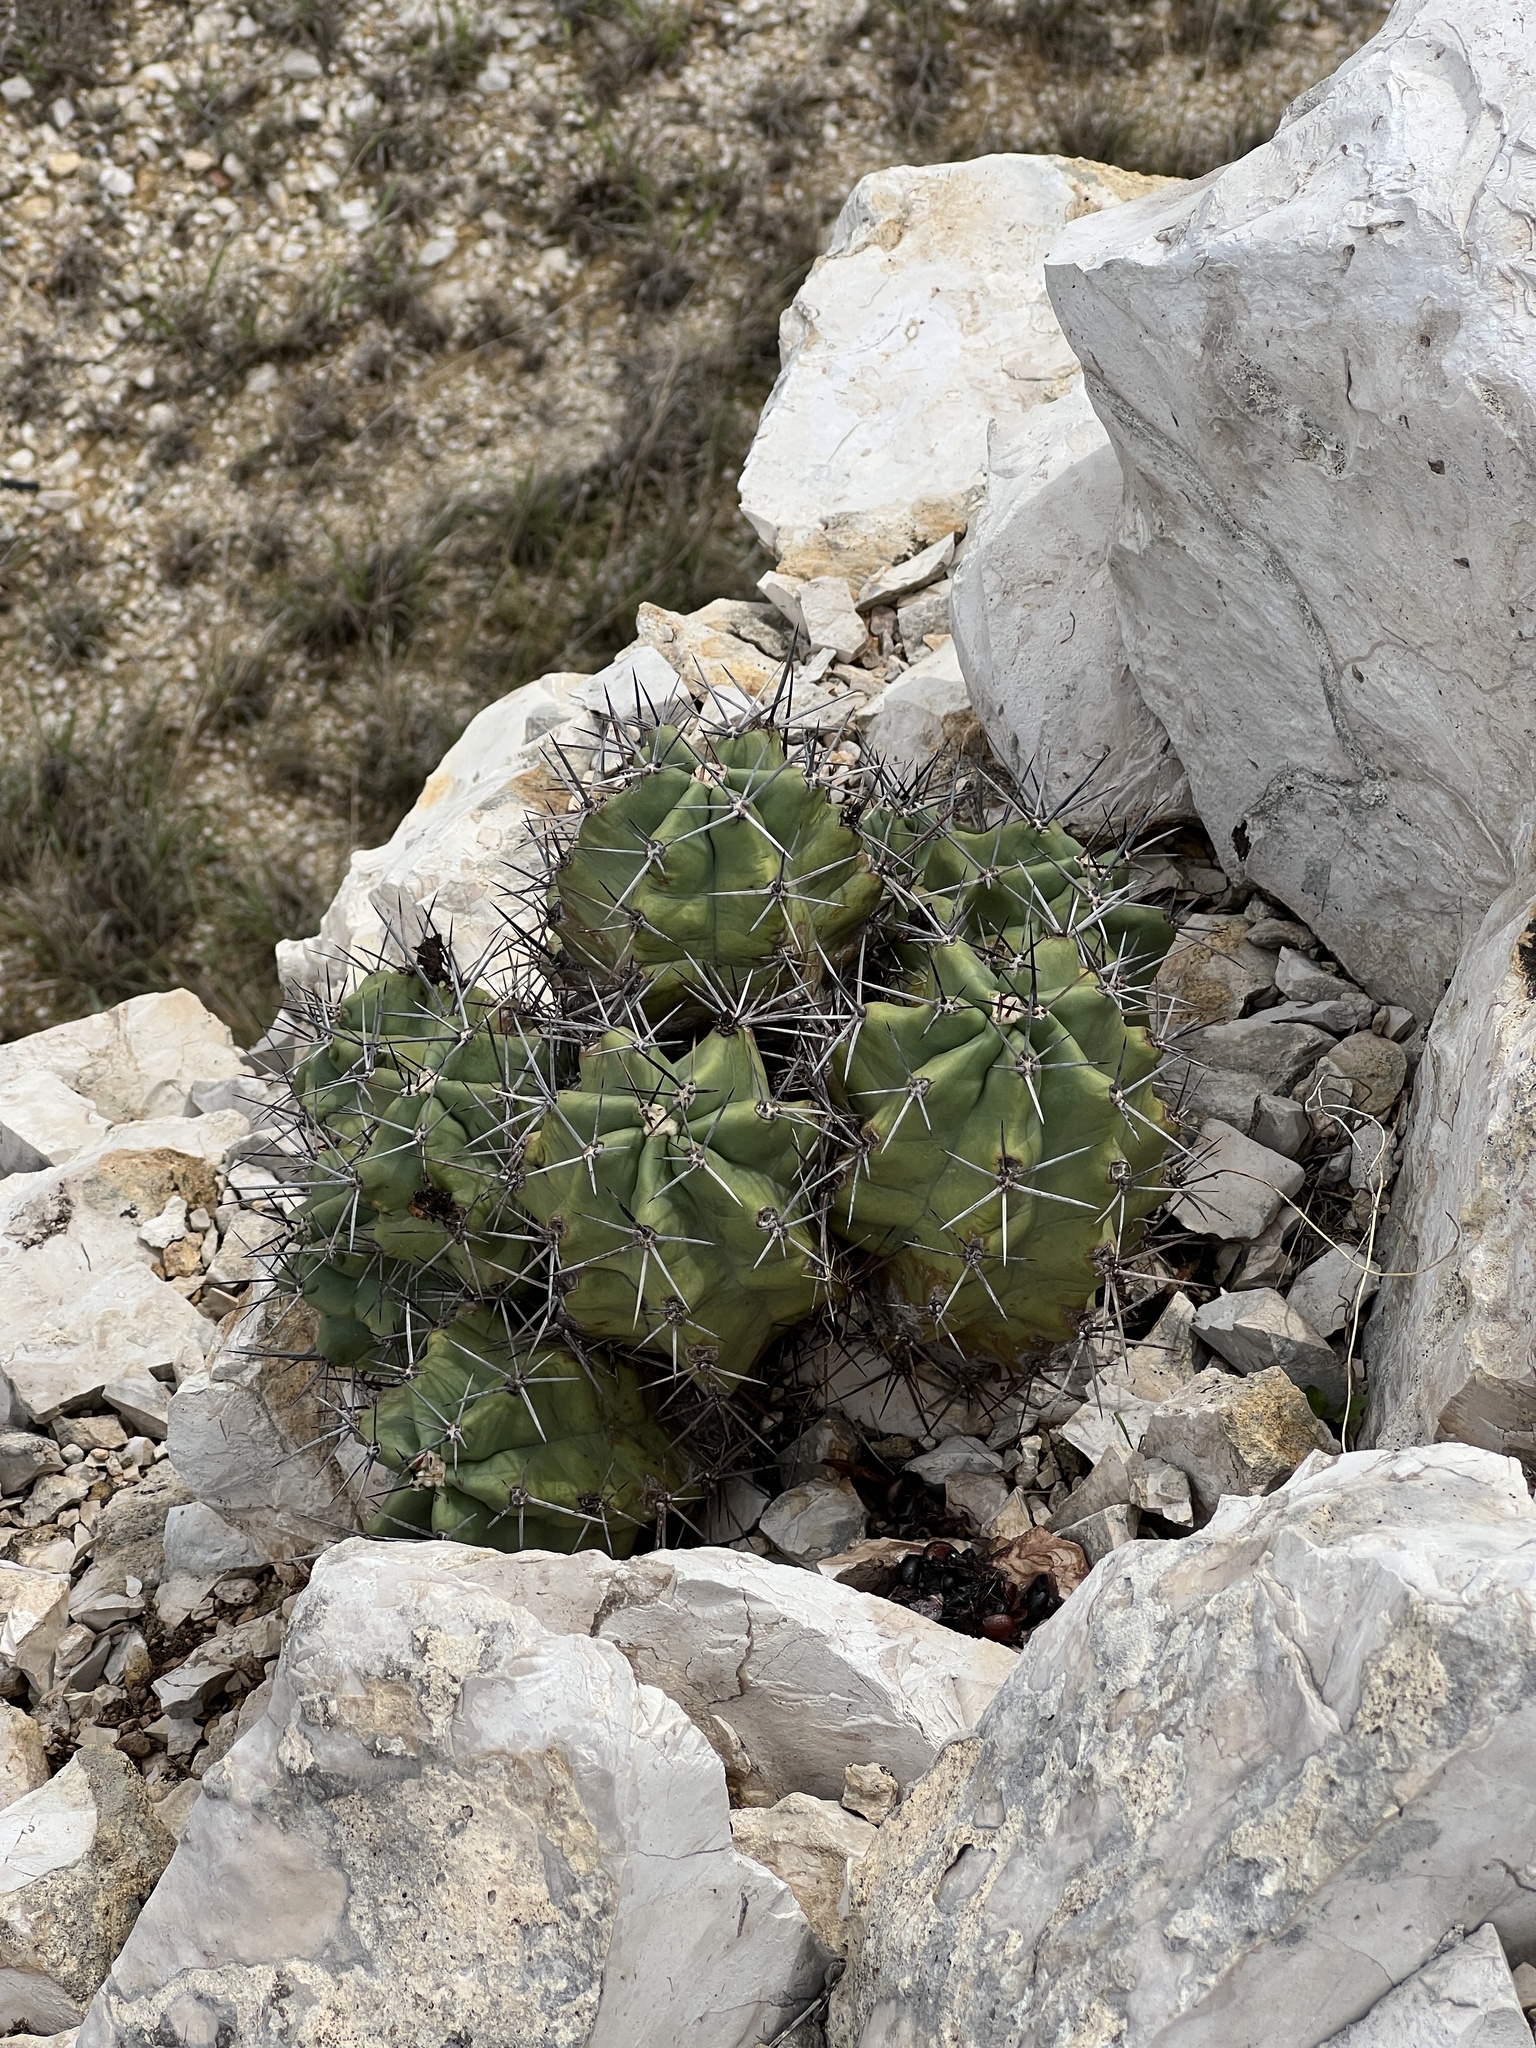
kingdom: Plantae
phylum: Tracheophyta
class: Magnoliopsida
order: Caryophyllales
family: Cactaceae
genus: Echinocereus
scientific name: Echinocereus coccineus
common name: Scarlet hedgehog cactus
